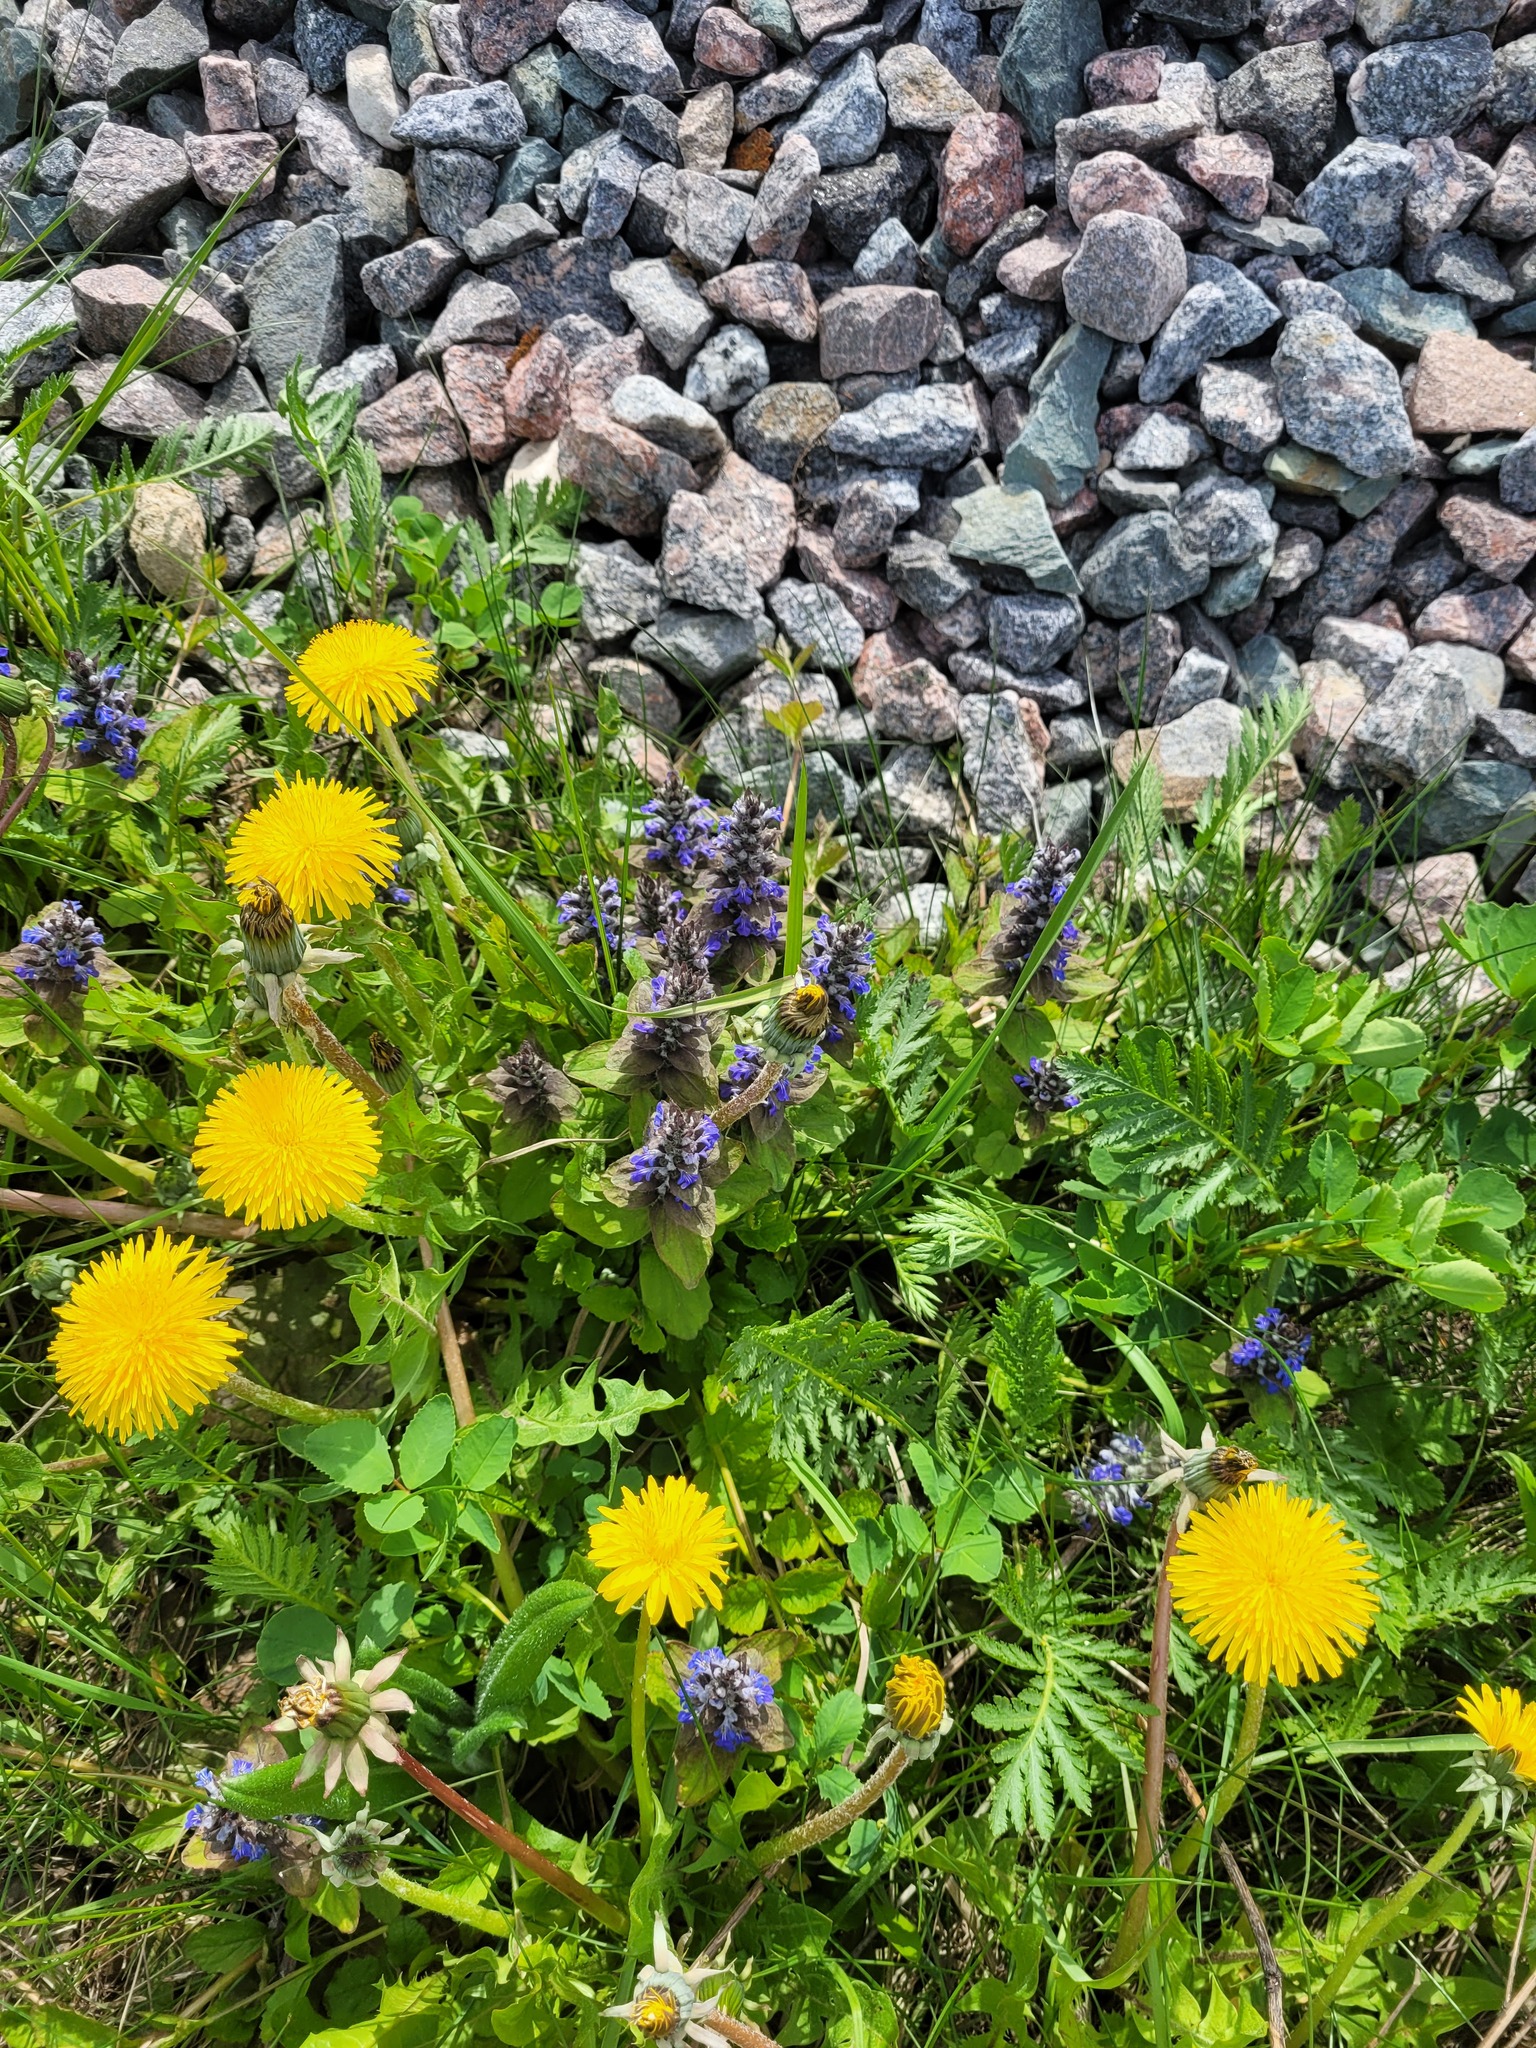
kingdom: Plantae
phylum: Tracheophyta
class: Magnoliopsida
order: Asterales
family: Asteraceae
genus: Taraxacum
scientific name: Taraxacum officinale
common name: Common dandelion
